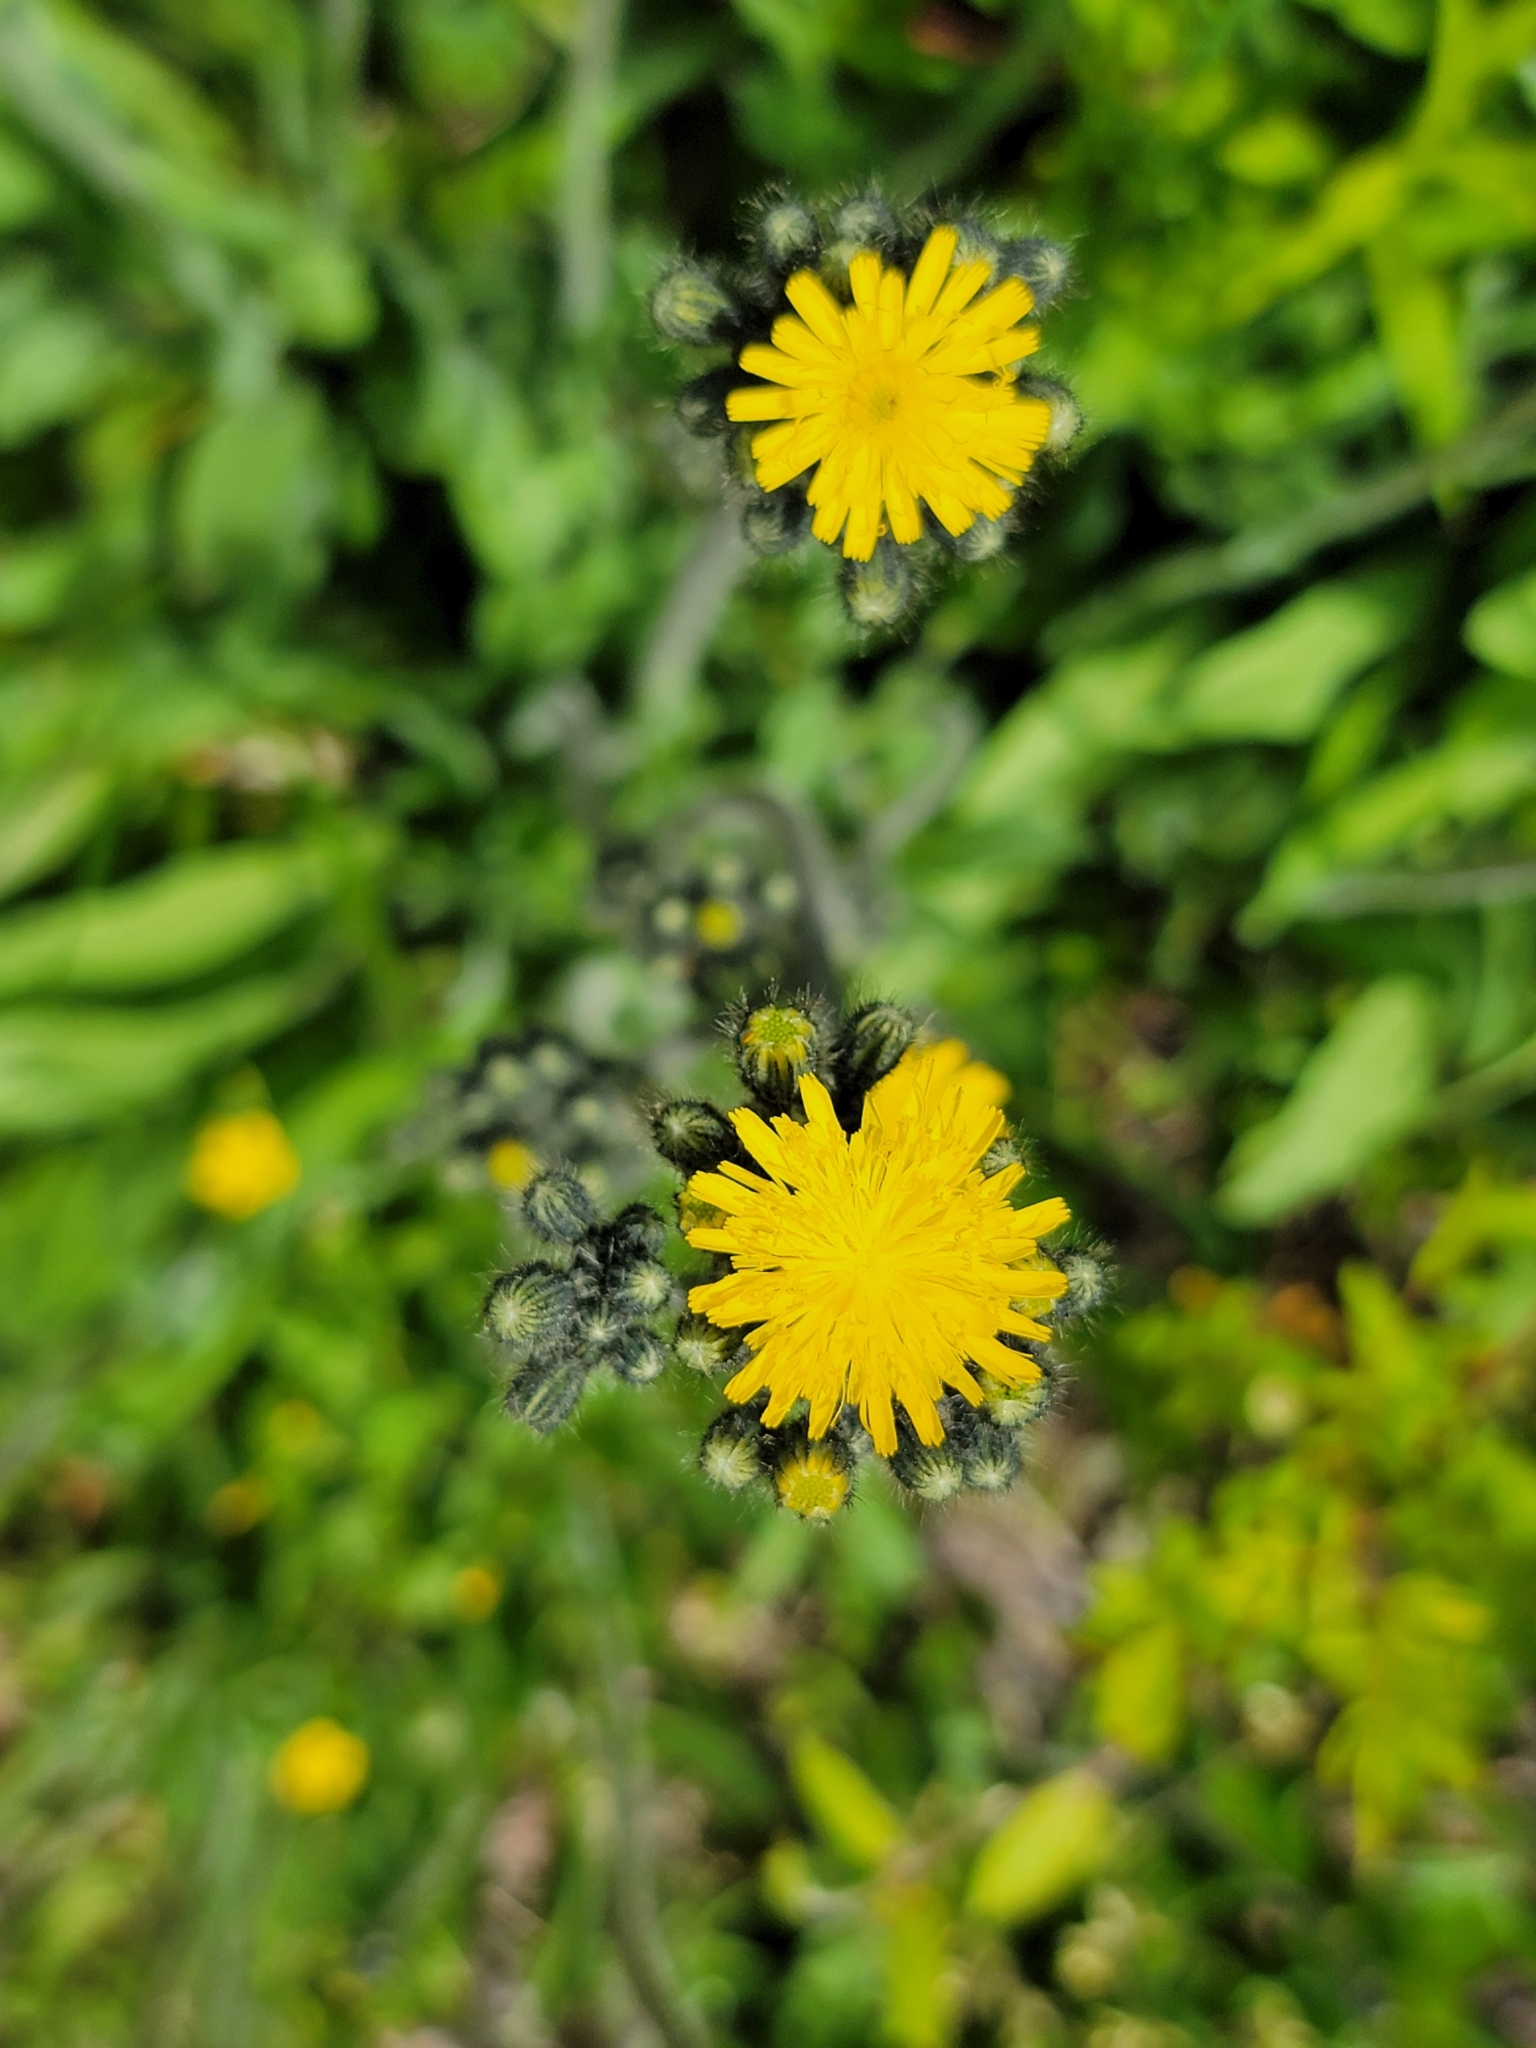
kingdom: Plantae
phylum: Tracheophyta
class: Magnoliopsida
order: Asterales
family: Asteraceae
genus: Pilosella
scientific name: Pilosella caespitosa
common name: Yellow fox-and-cubs
